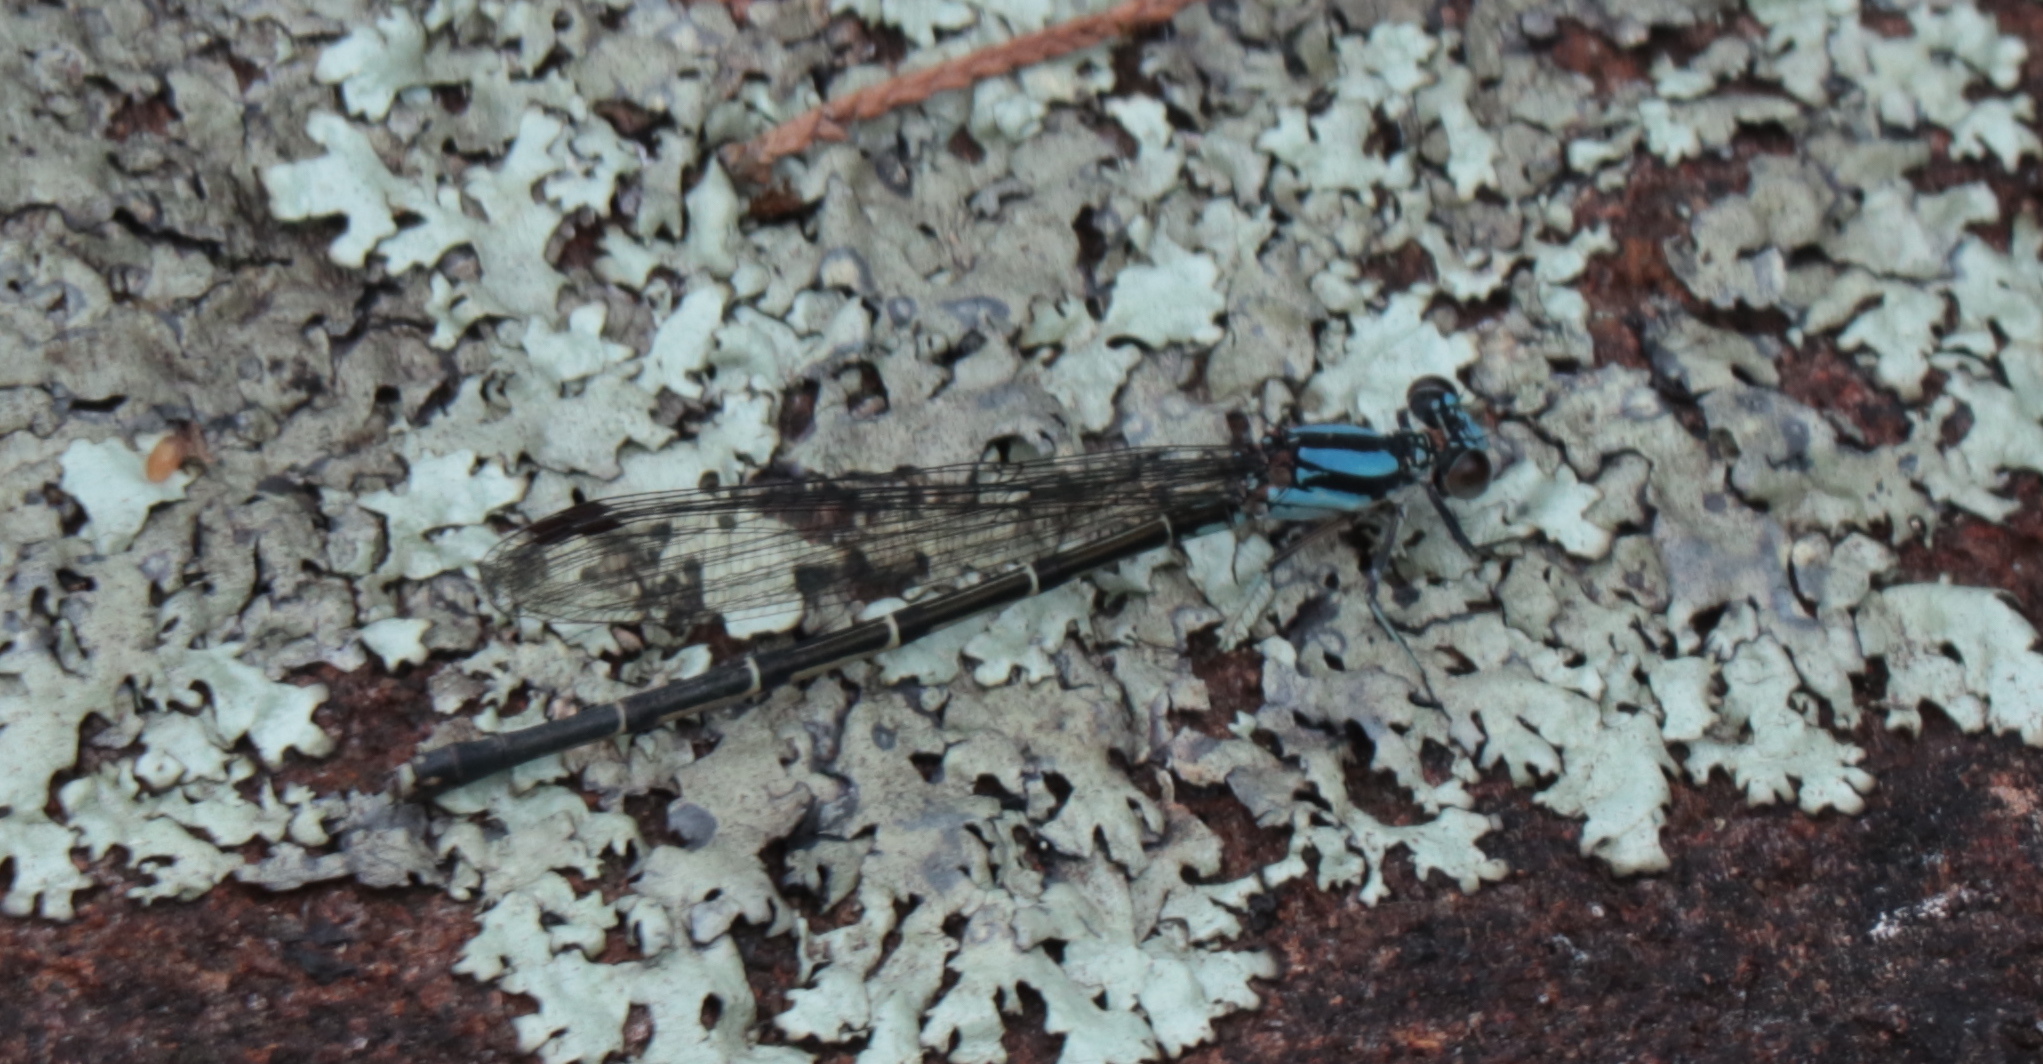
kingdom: Animalia
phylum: Arthropoda
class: Insecta
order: Odonata
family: Coenagrionidae
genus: Argia
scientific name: Argia tibialis
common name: Blue-tipped dancer
